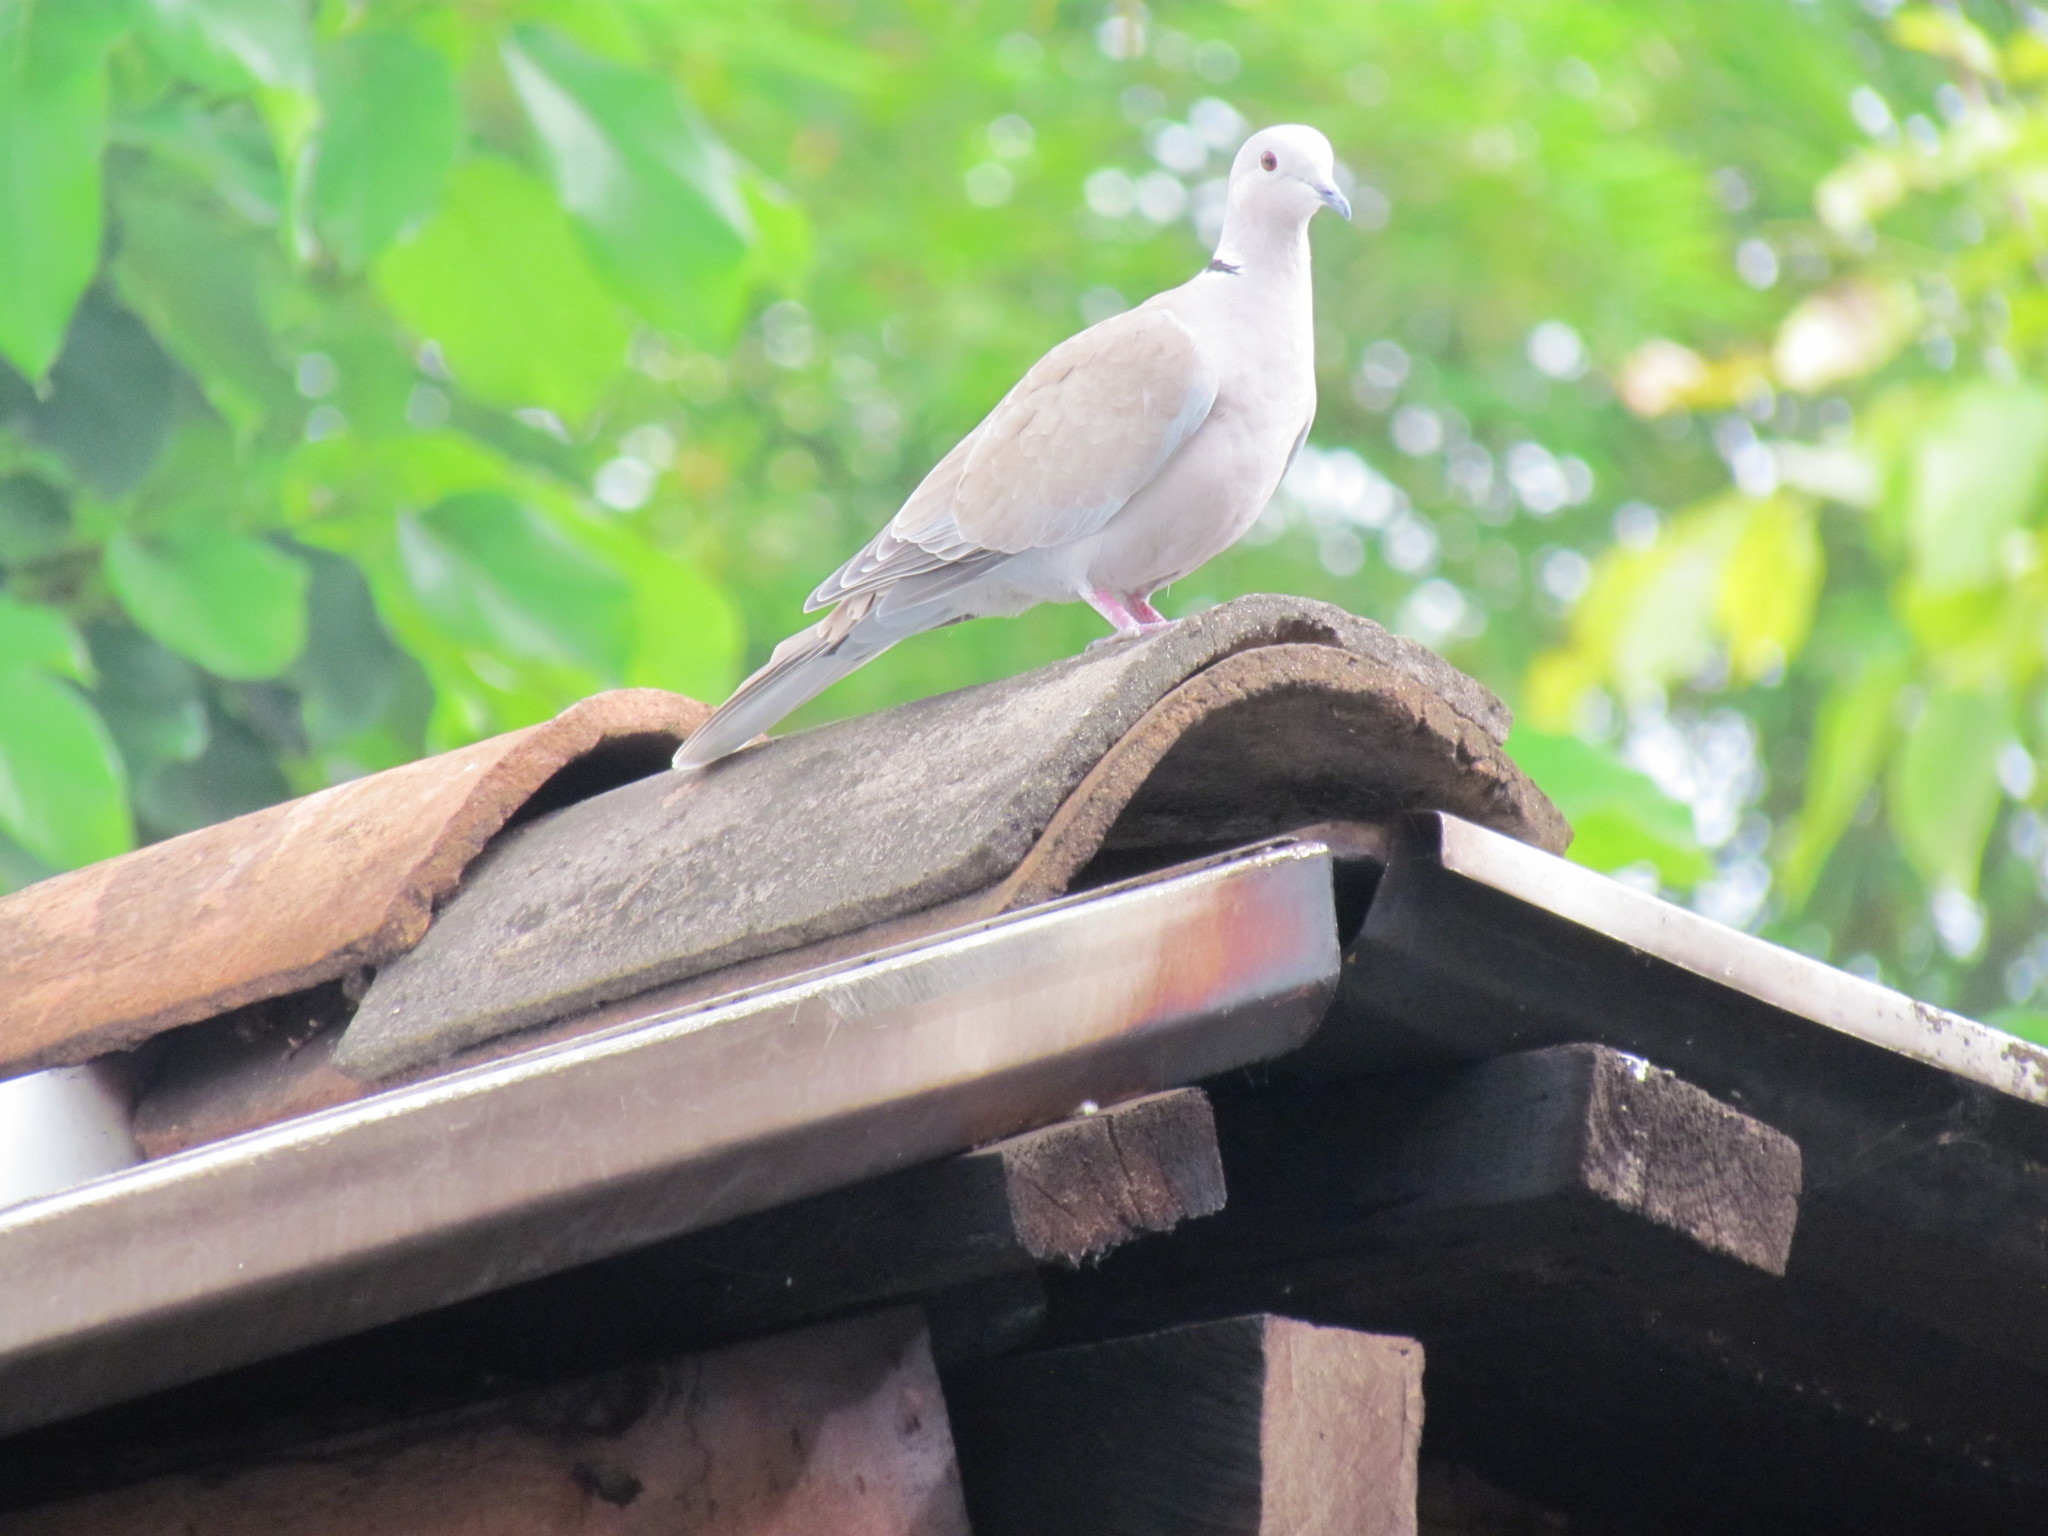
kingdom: Animalia
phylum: Chordata
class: Aves
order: Columbiformes
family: Columbidae
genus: Streptopelia
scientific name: Streptopelia decaocto
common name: Eurasian collared dove
